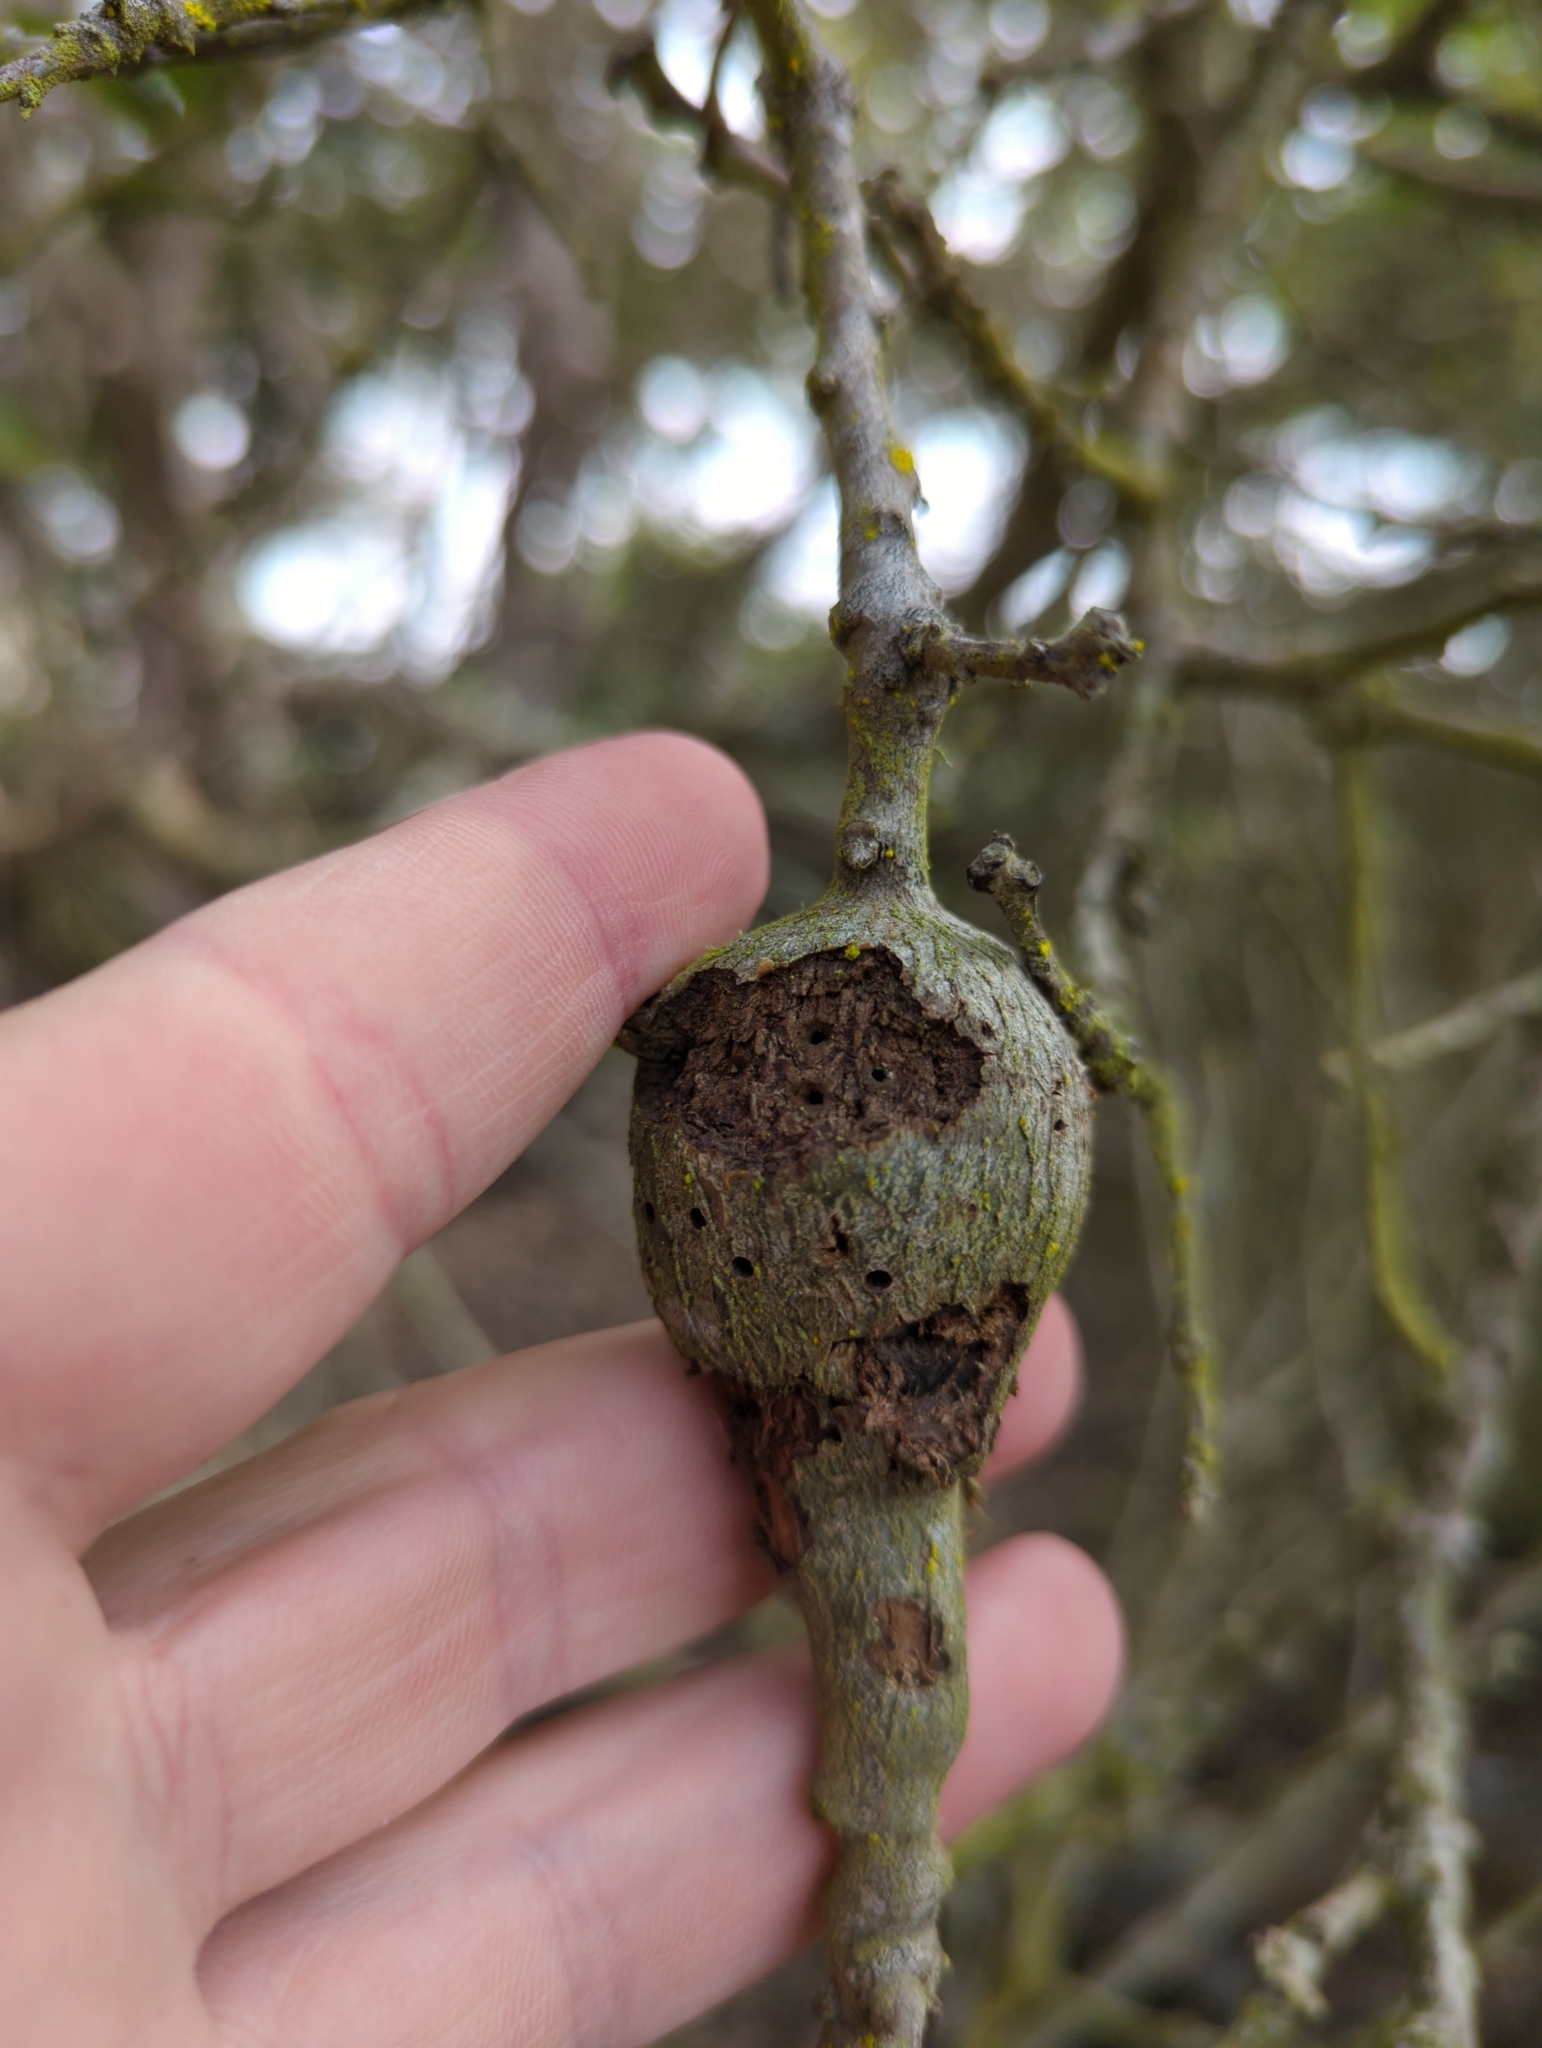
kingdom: Animalia
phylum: Arthropoda
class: Insecta
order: Hymenoptera
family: Cynipidae
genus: Callirhytis
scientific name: Callirhytis
